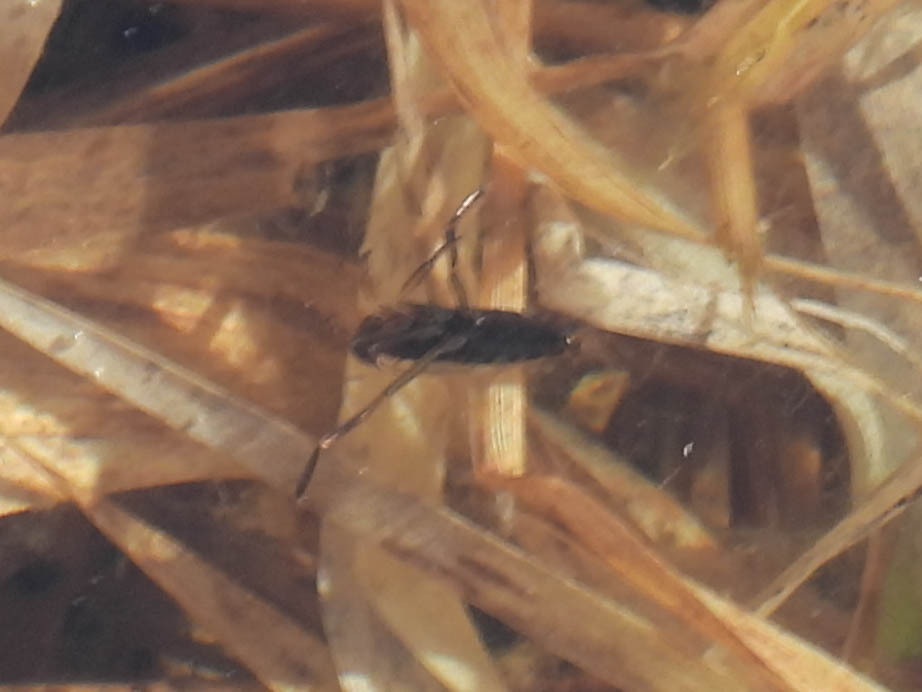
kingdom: Animalia
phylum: Arthropoda
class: Insecta
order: Hemiptera
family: Notonectidae
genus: Notonecta
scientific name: Notonecta
